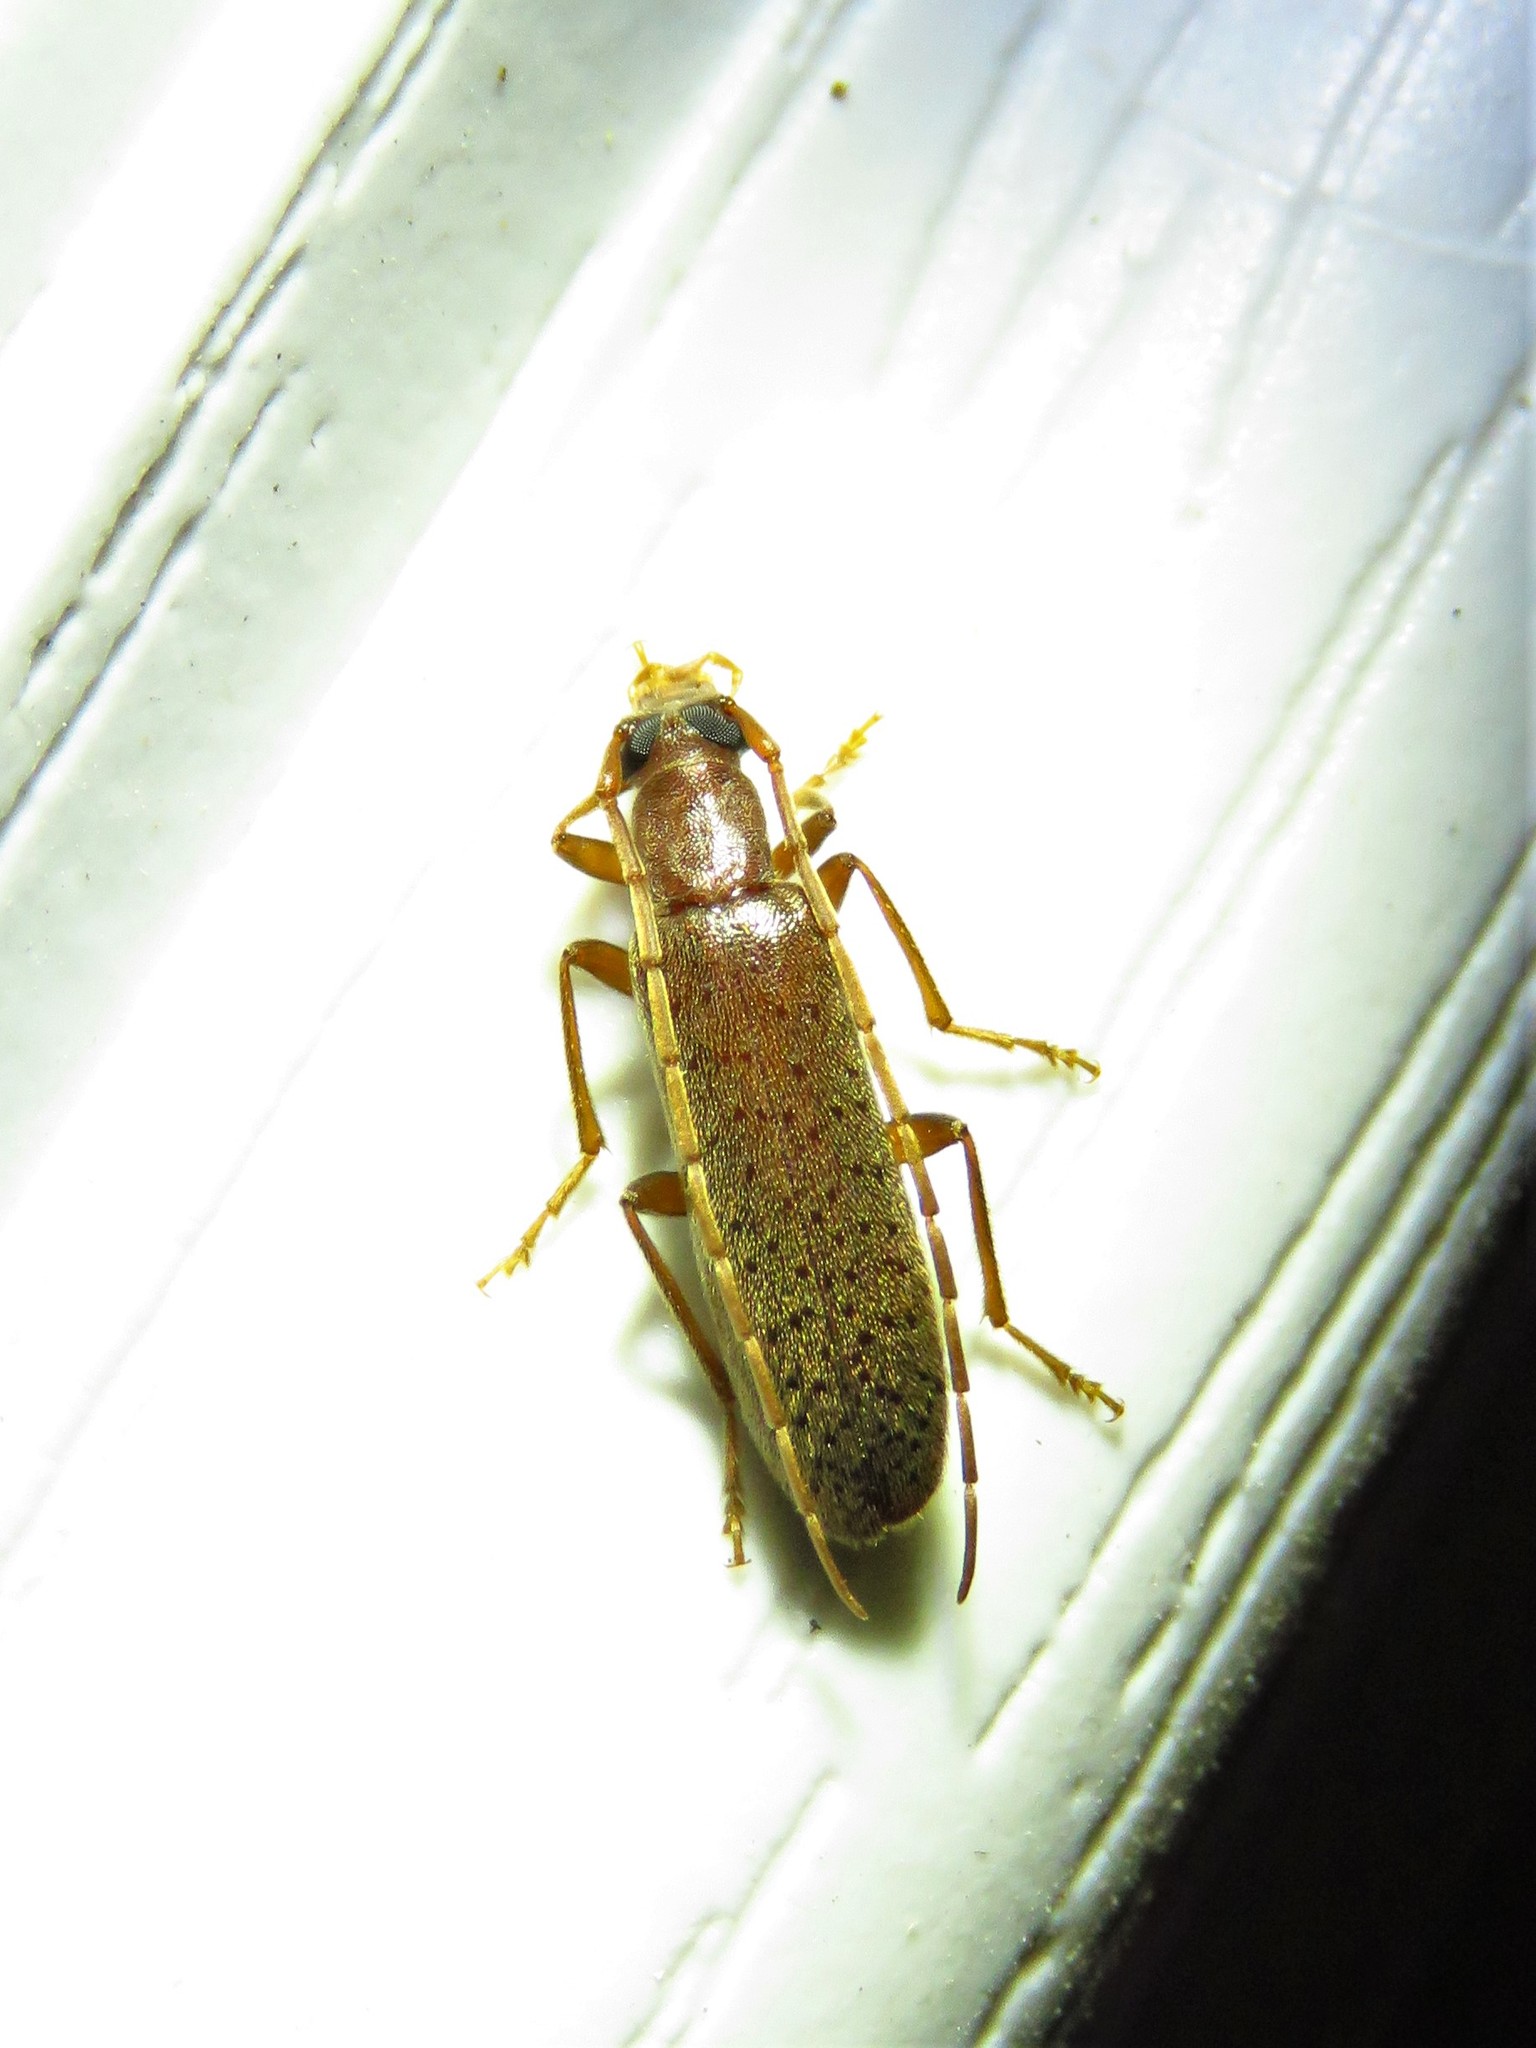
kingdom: Animalia
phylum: Arthropoda
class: Insecta
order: Coleoptera
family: Oedemeridae
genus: Sparedrus
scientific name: Sparedrus aspersus
